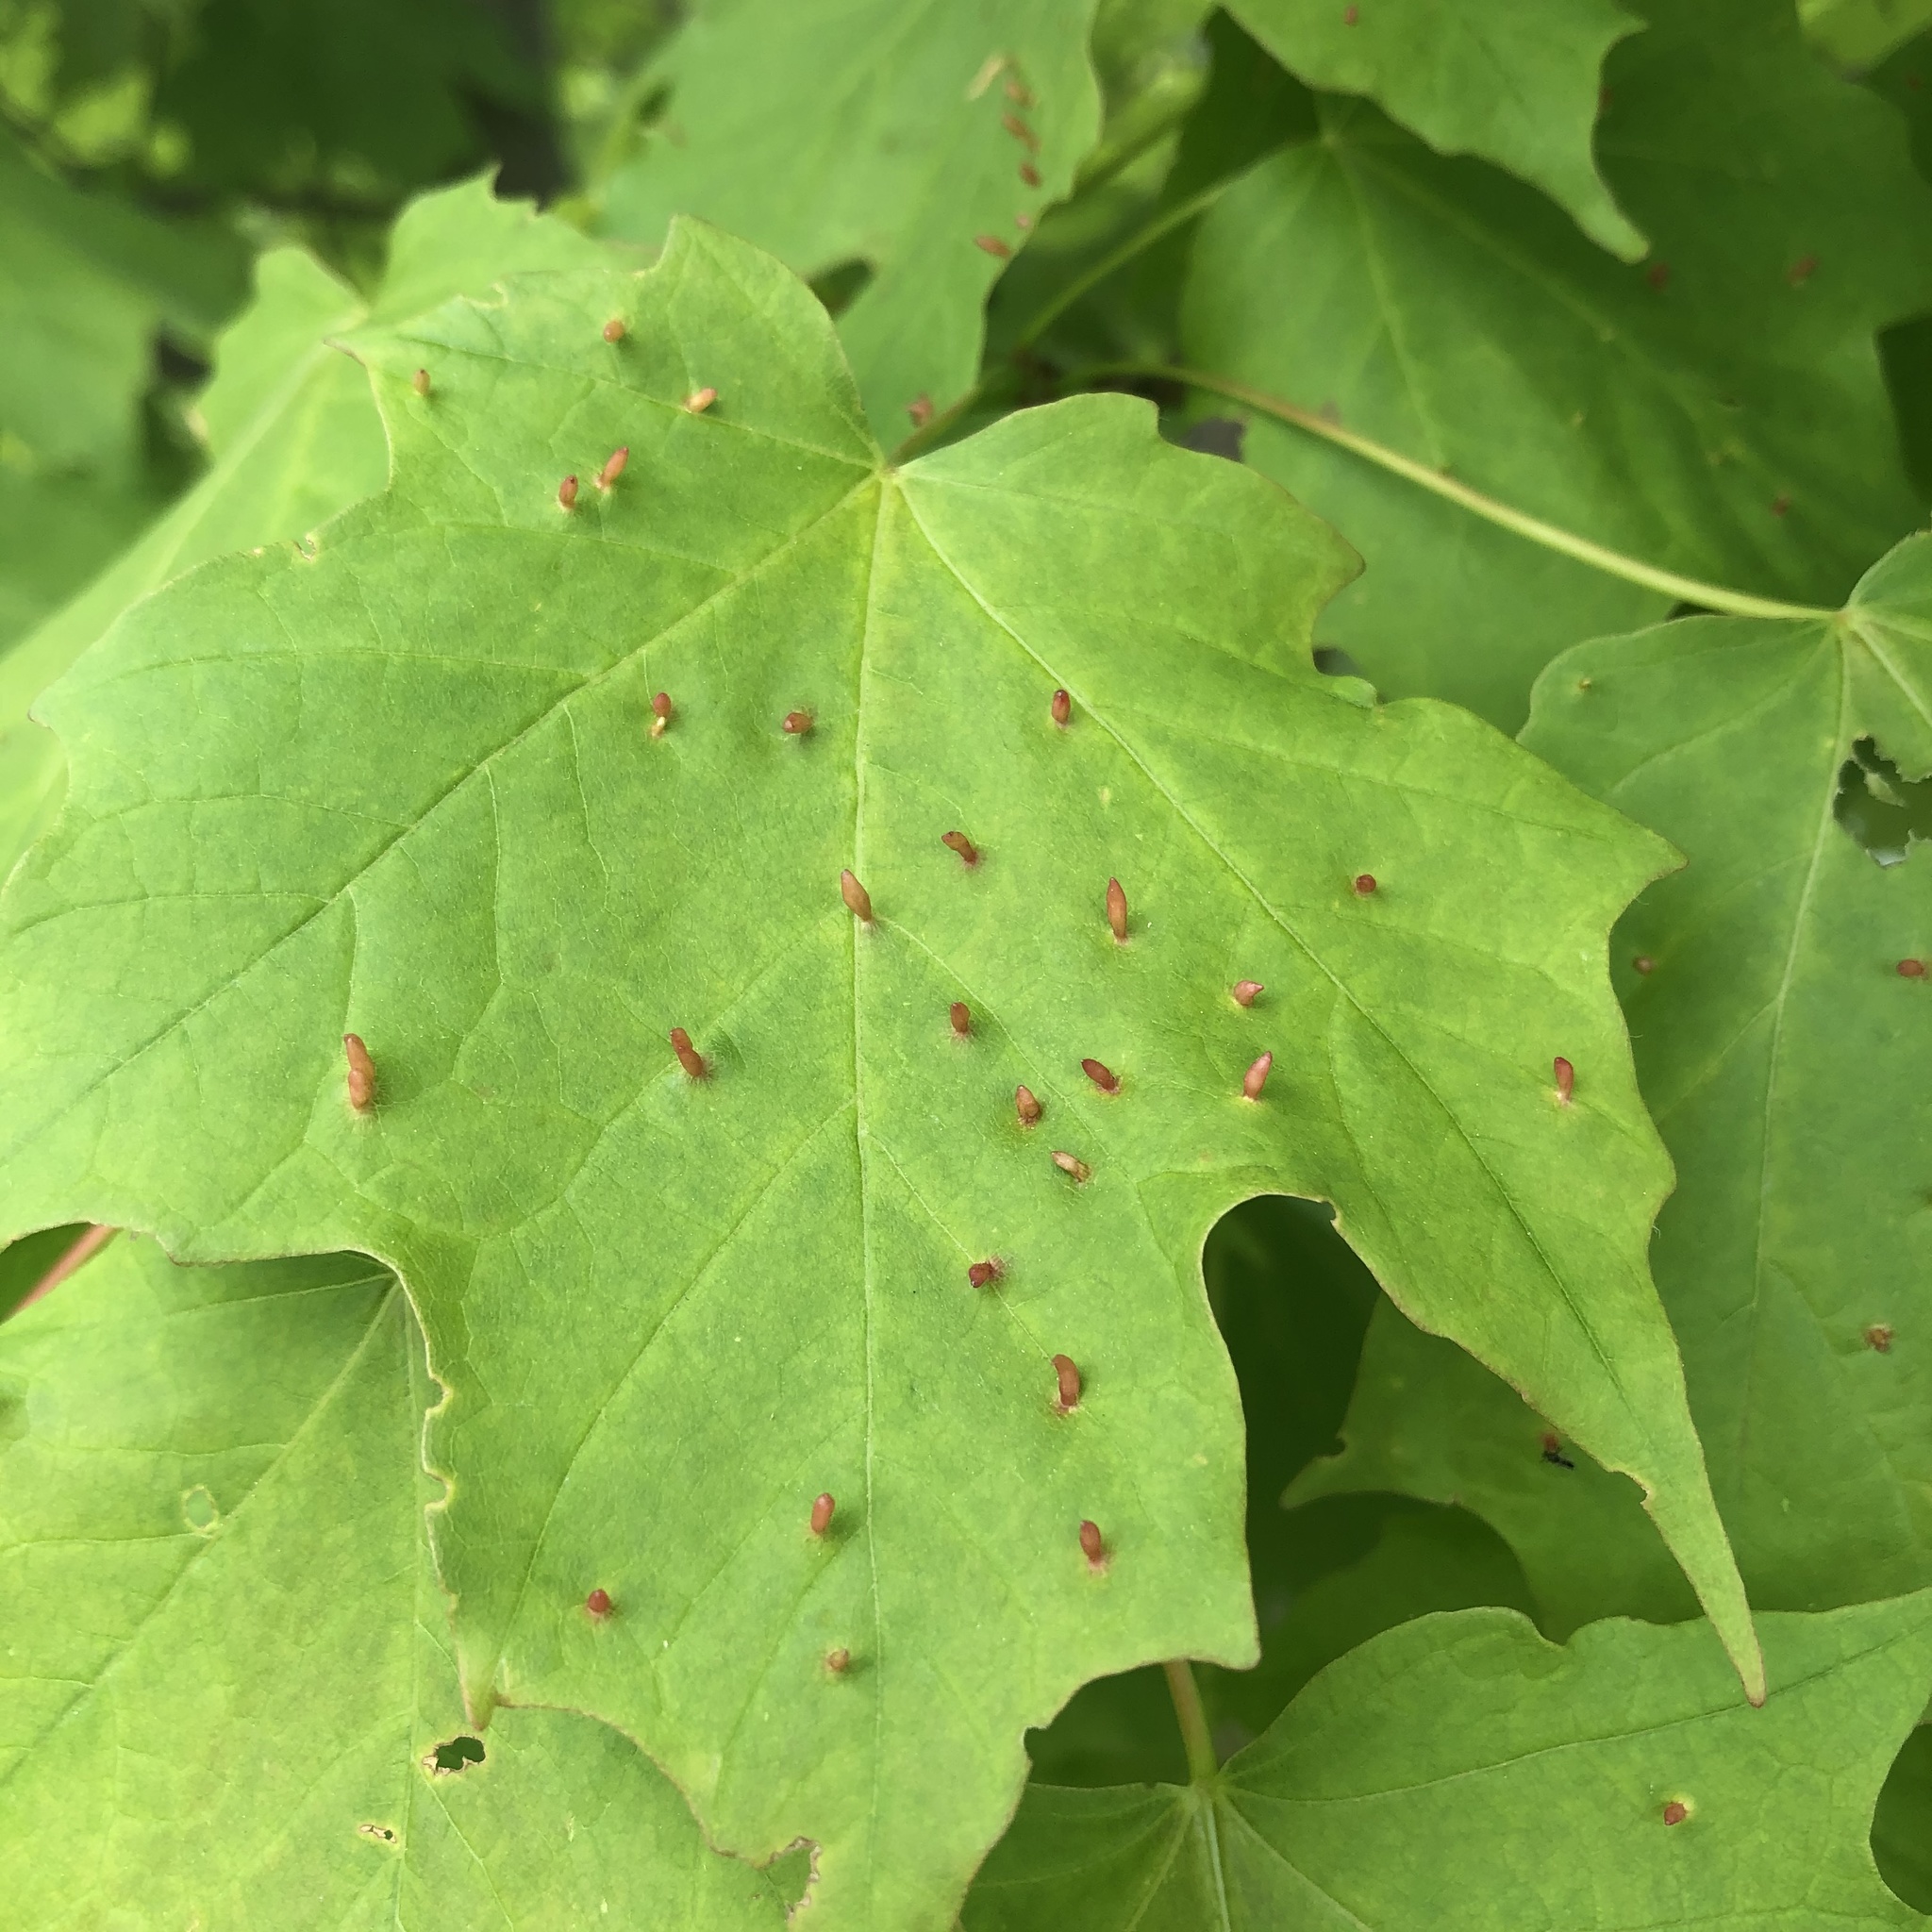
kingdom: Animalia
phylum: Arthropoda
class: Arachnida
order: Trombidiformes
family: Eriophyidae
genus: Vasates
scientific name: Vasates aceriscrumena
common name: Maple spindle gall mite
